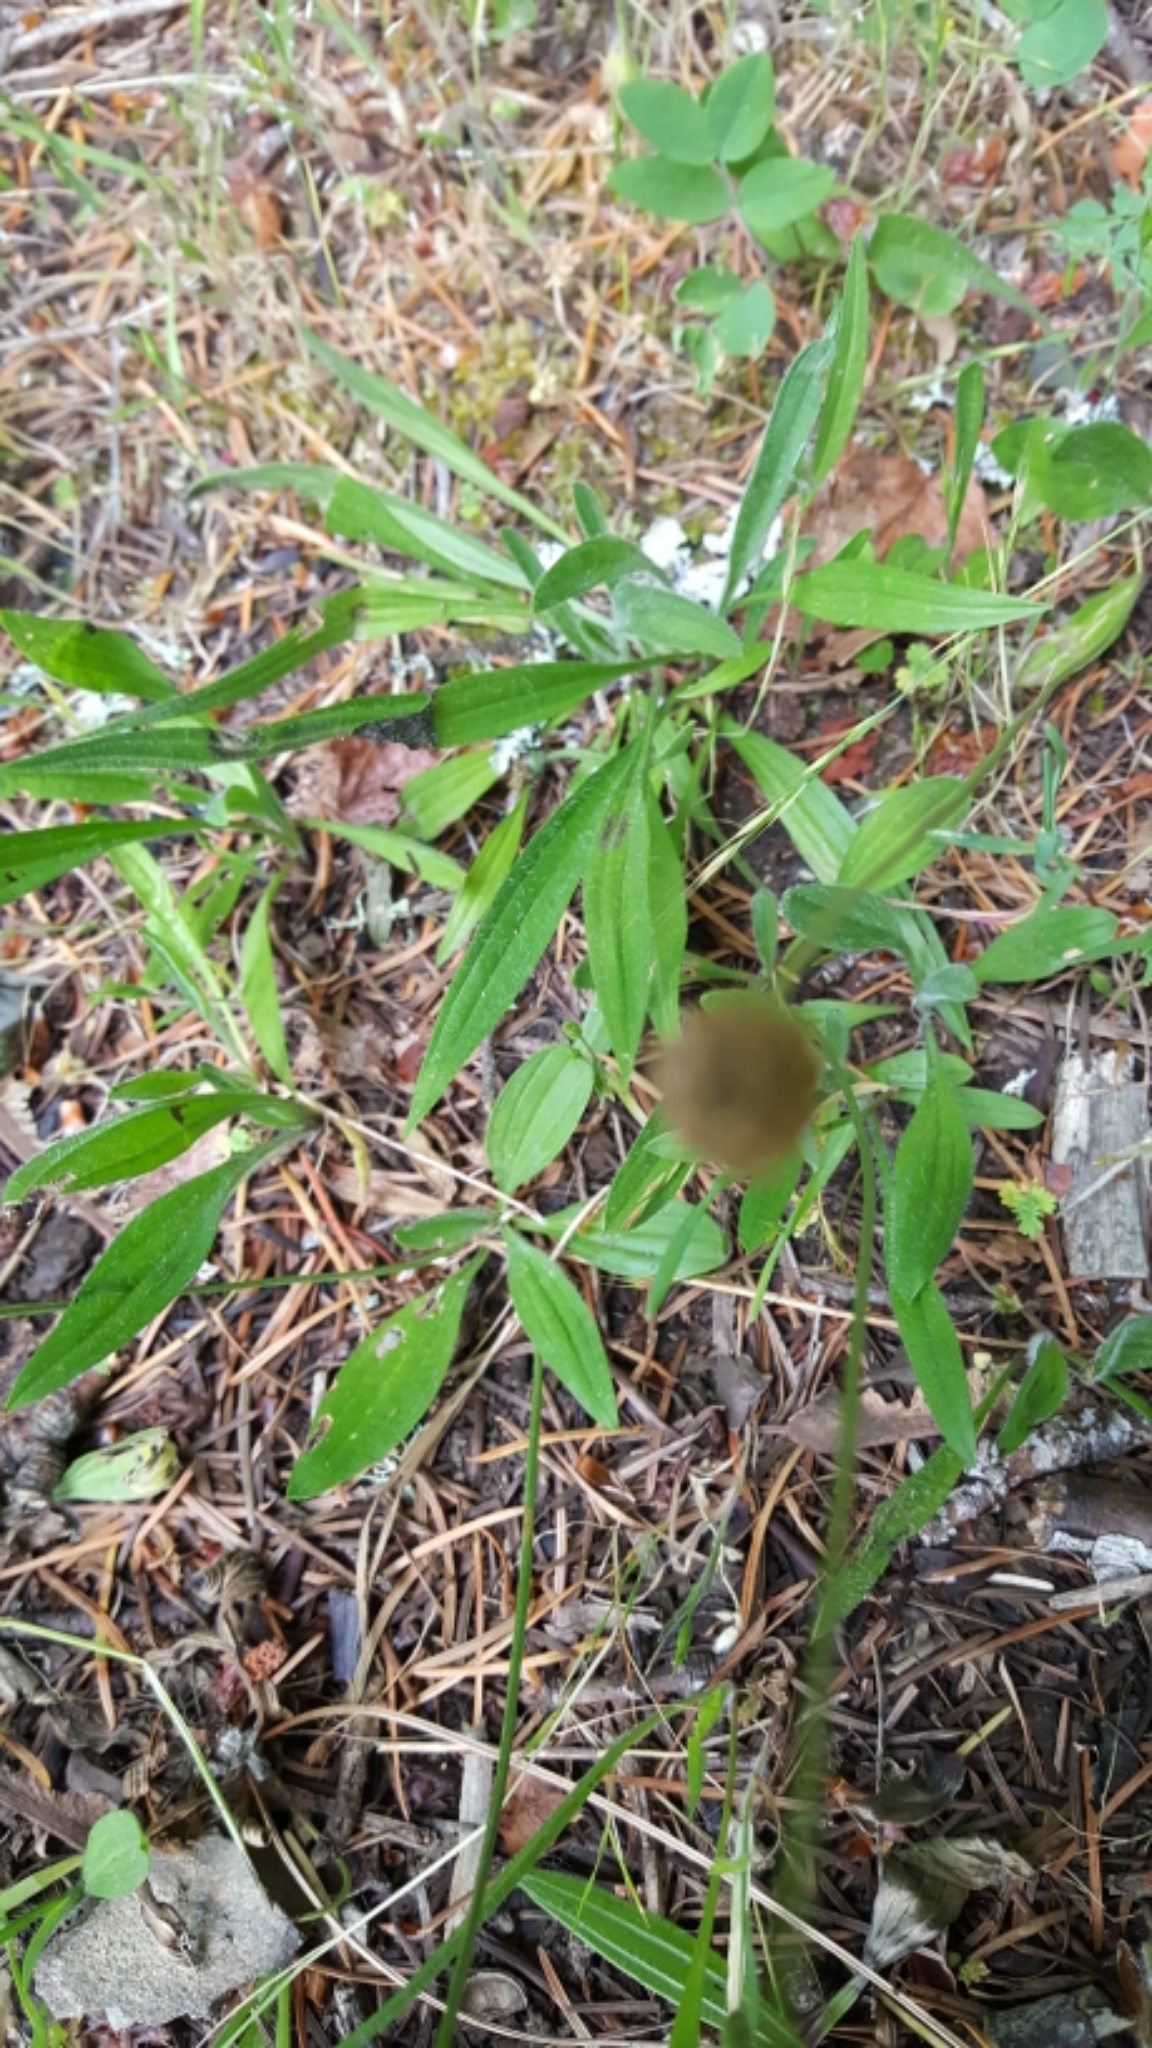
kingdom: Plantae
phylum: Tracheophyta
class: Magnoliopsida
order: Lamiales
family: Plantaginaceae
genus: Plantago
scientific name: Plantago lanceolata
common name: Ribwort plantain
